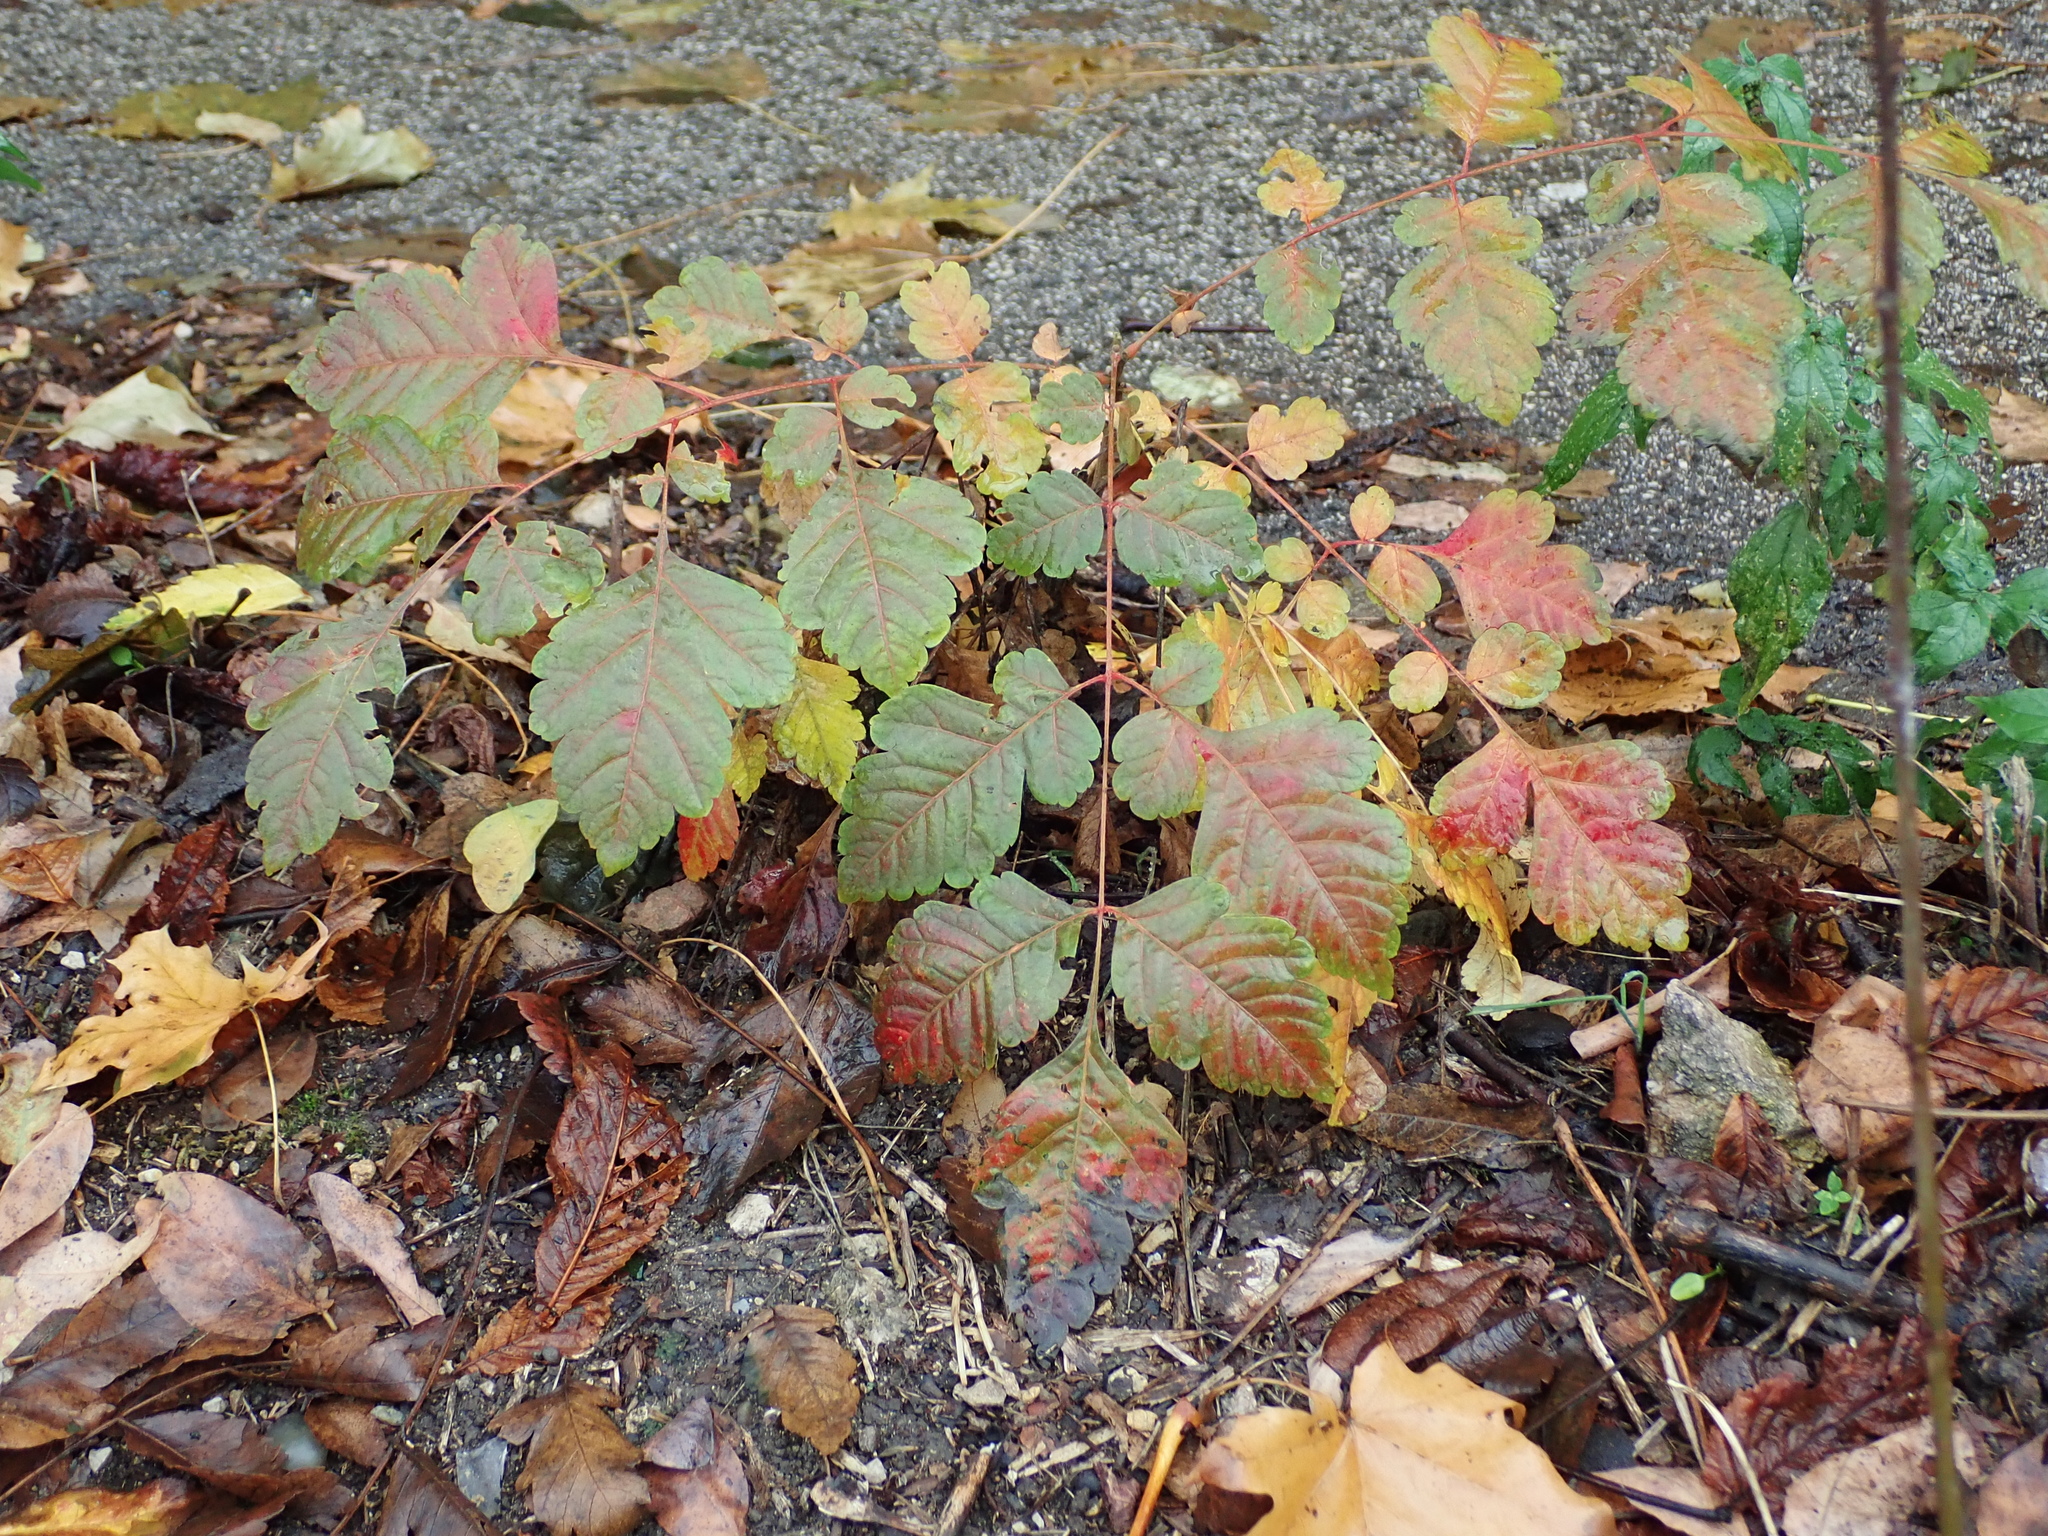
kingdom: Plantae
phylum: Tracheophyta
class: Magnoliopsida
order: Sapindales
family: Sapindaceae
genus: Koelreuteria
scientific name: Koelreuteria paniculata
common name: Pride-of-india
